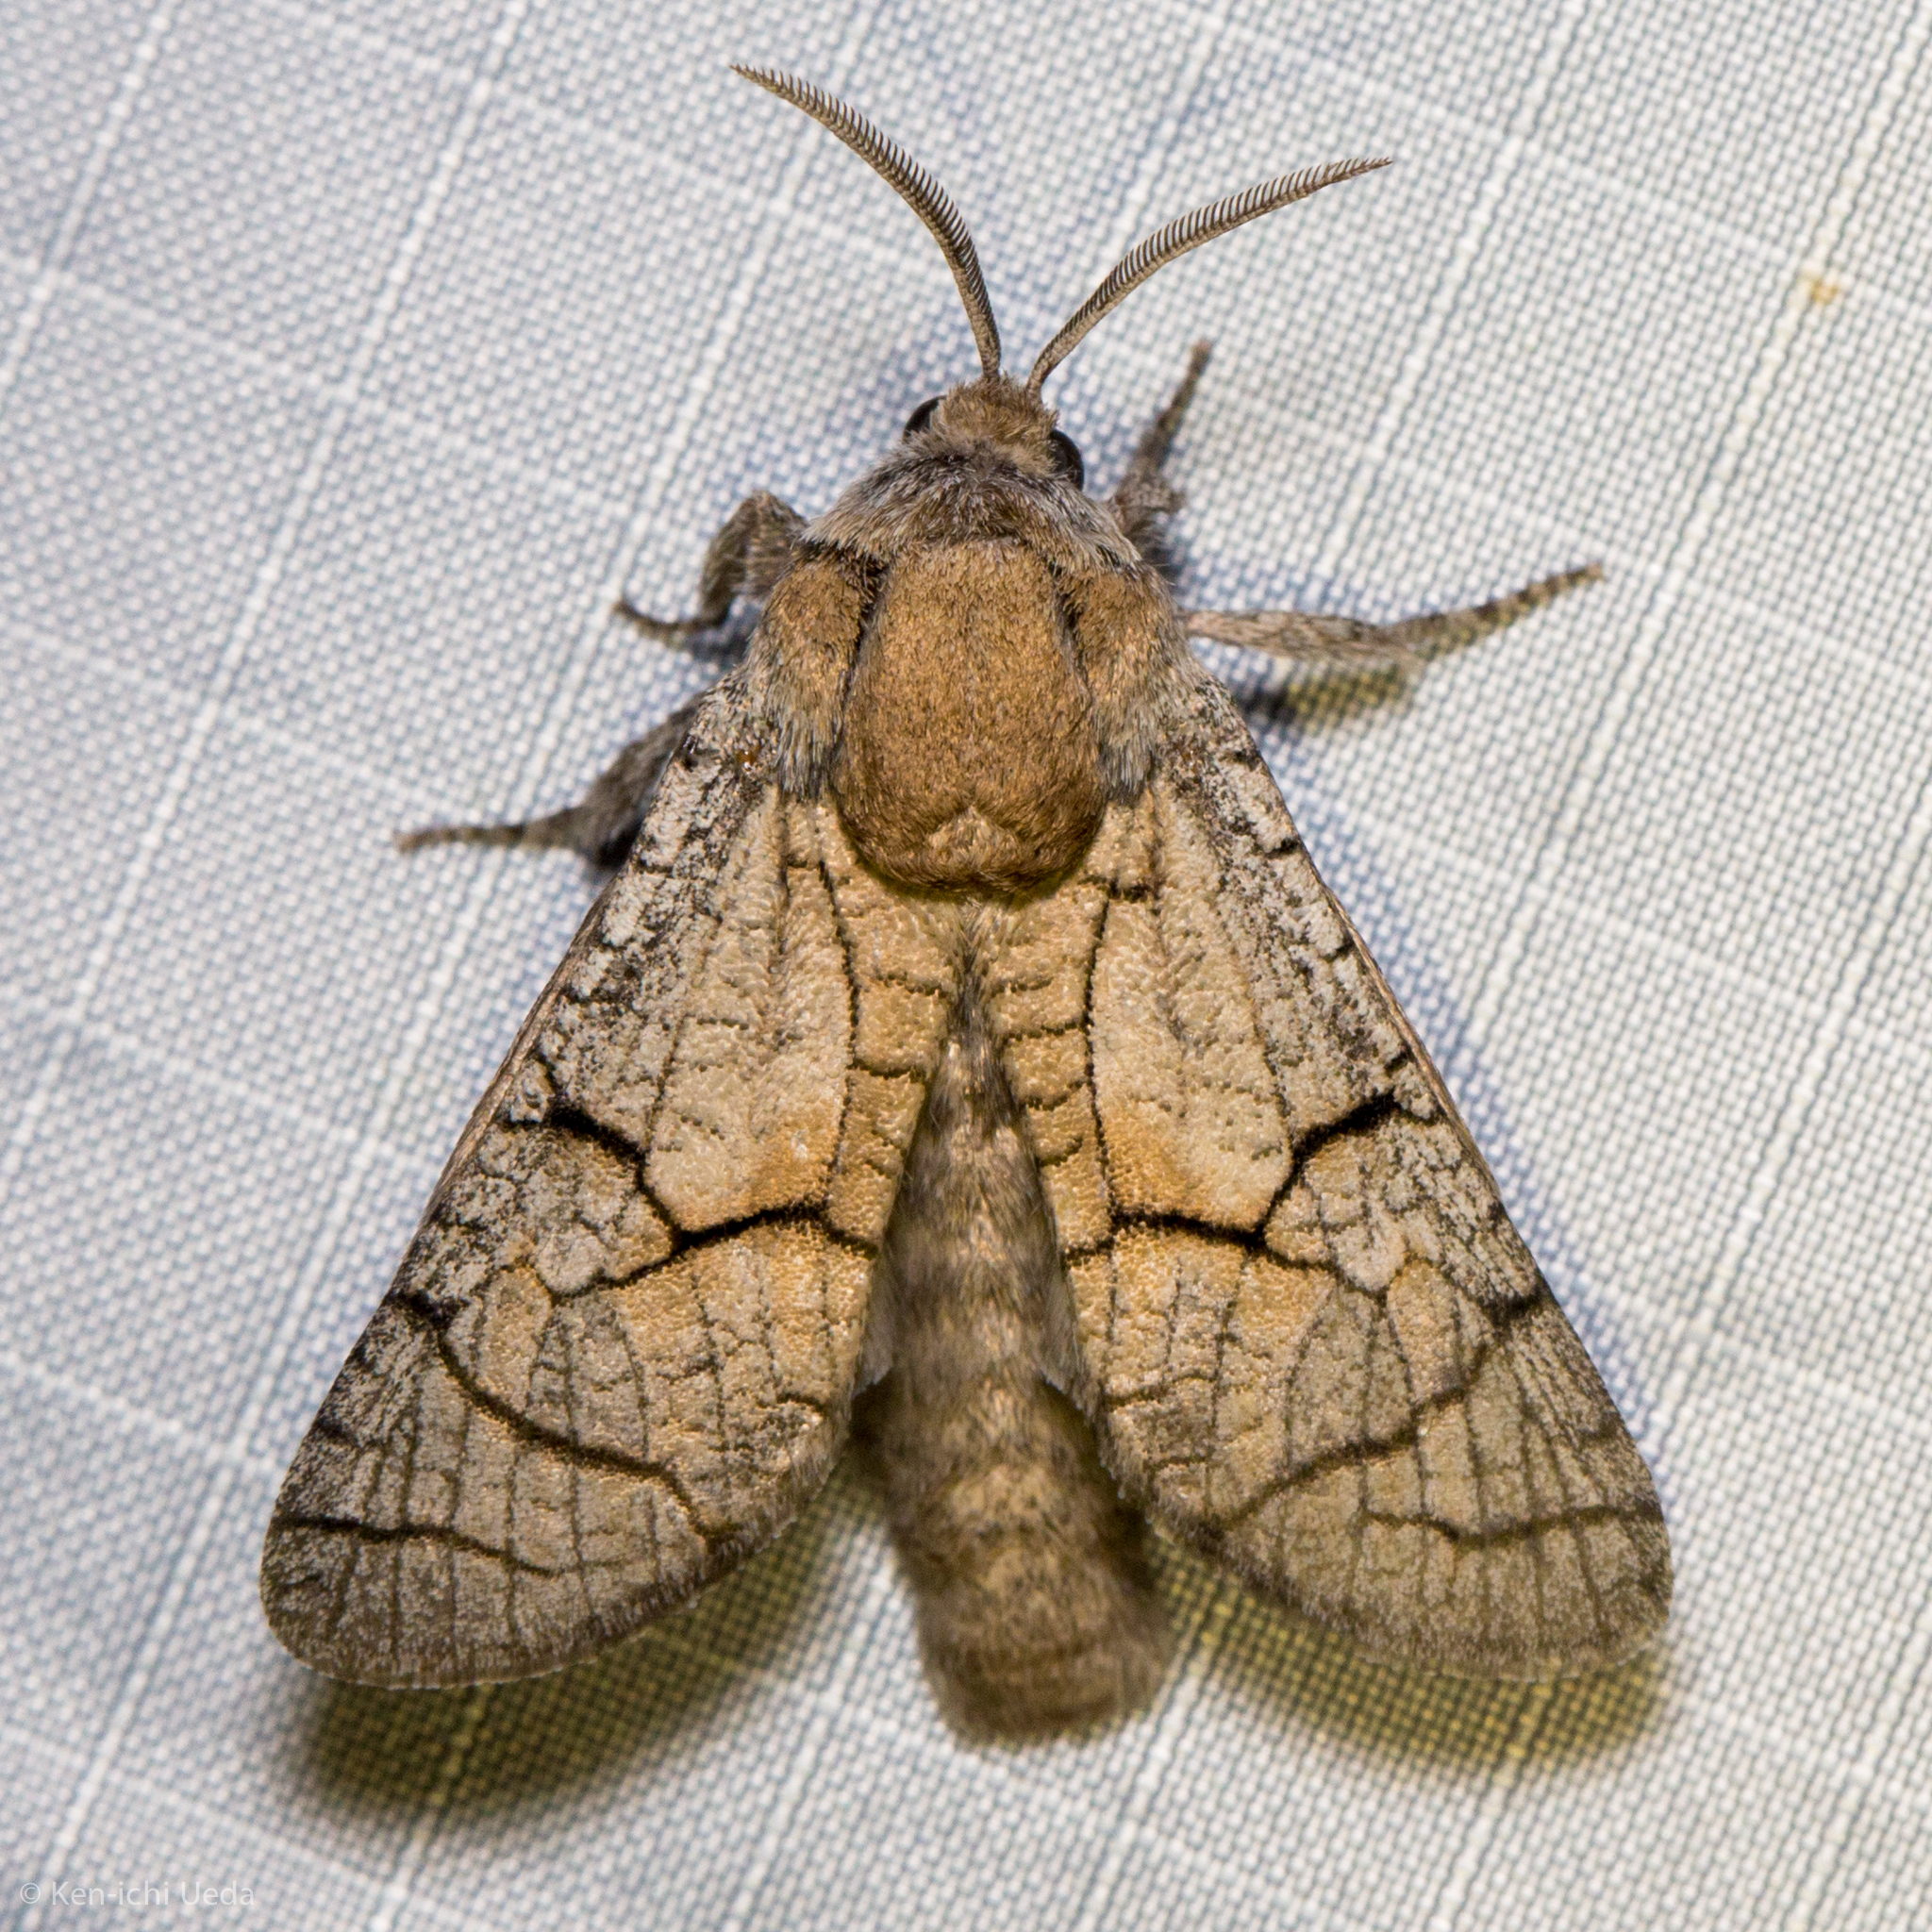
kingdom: Animalia
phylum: Arthropoda
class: Insecta
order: Lepidoptera
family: Cossidae
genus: Toronia
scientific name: Toronia
